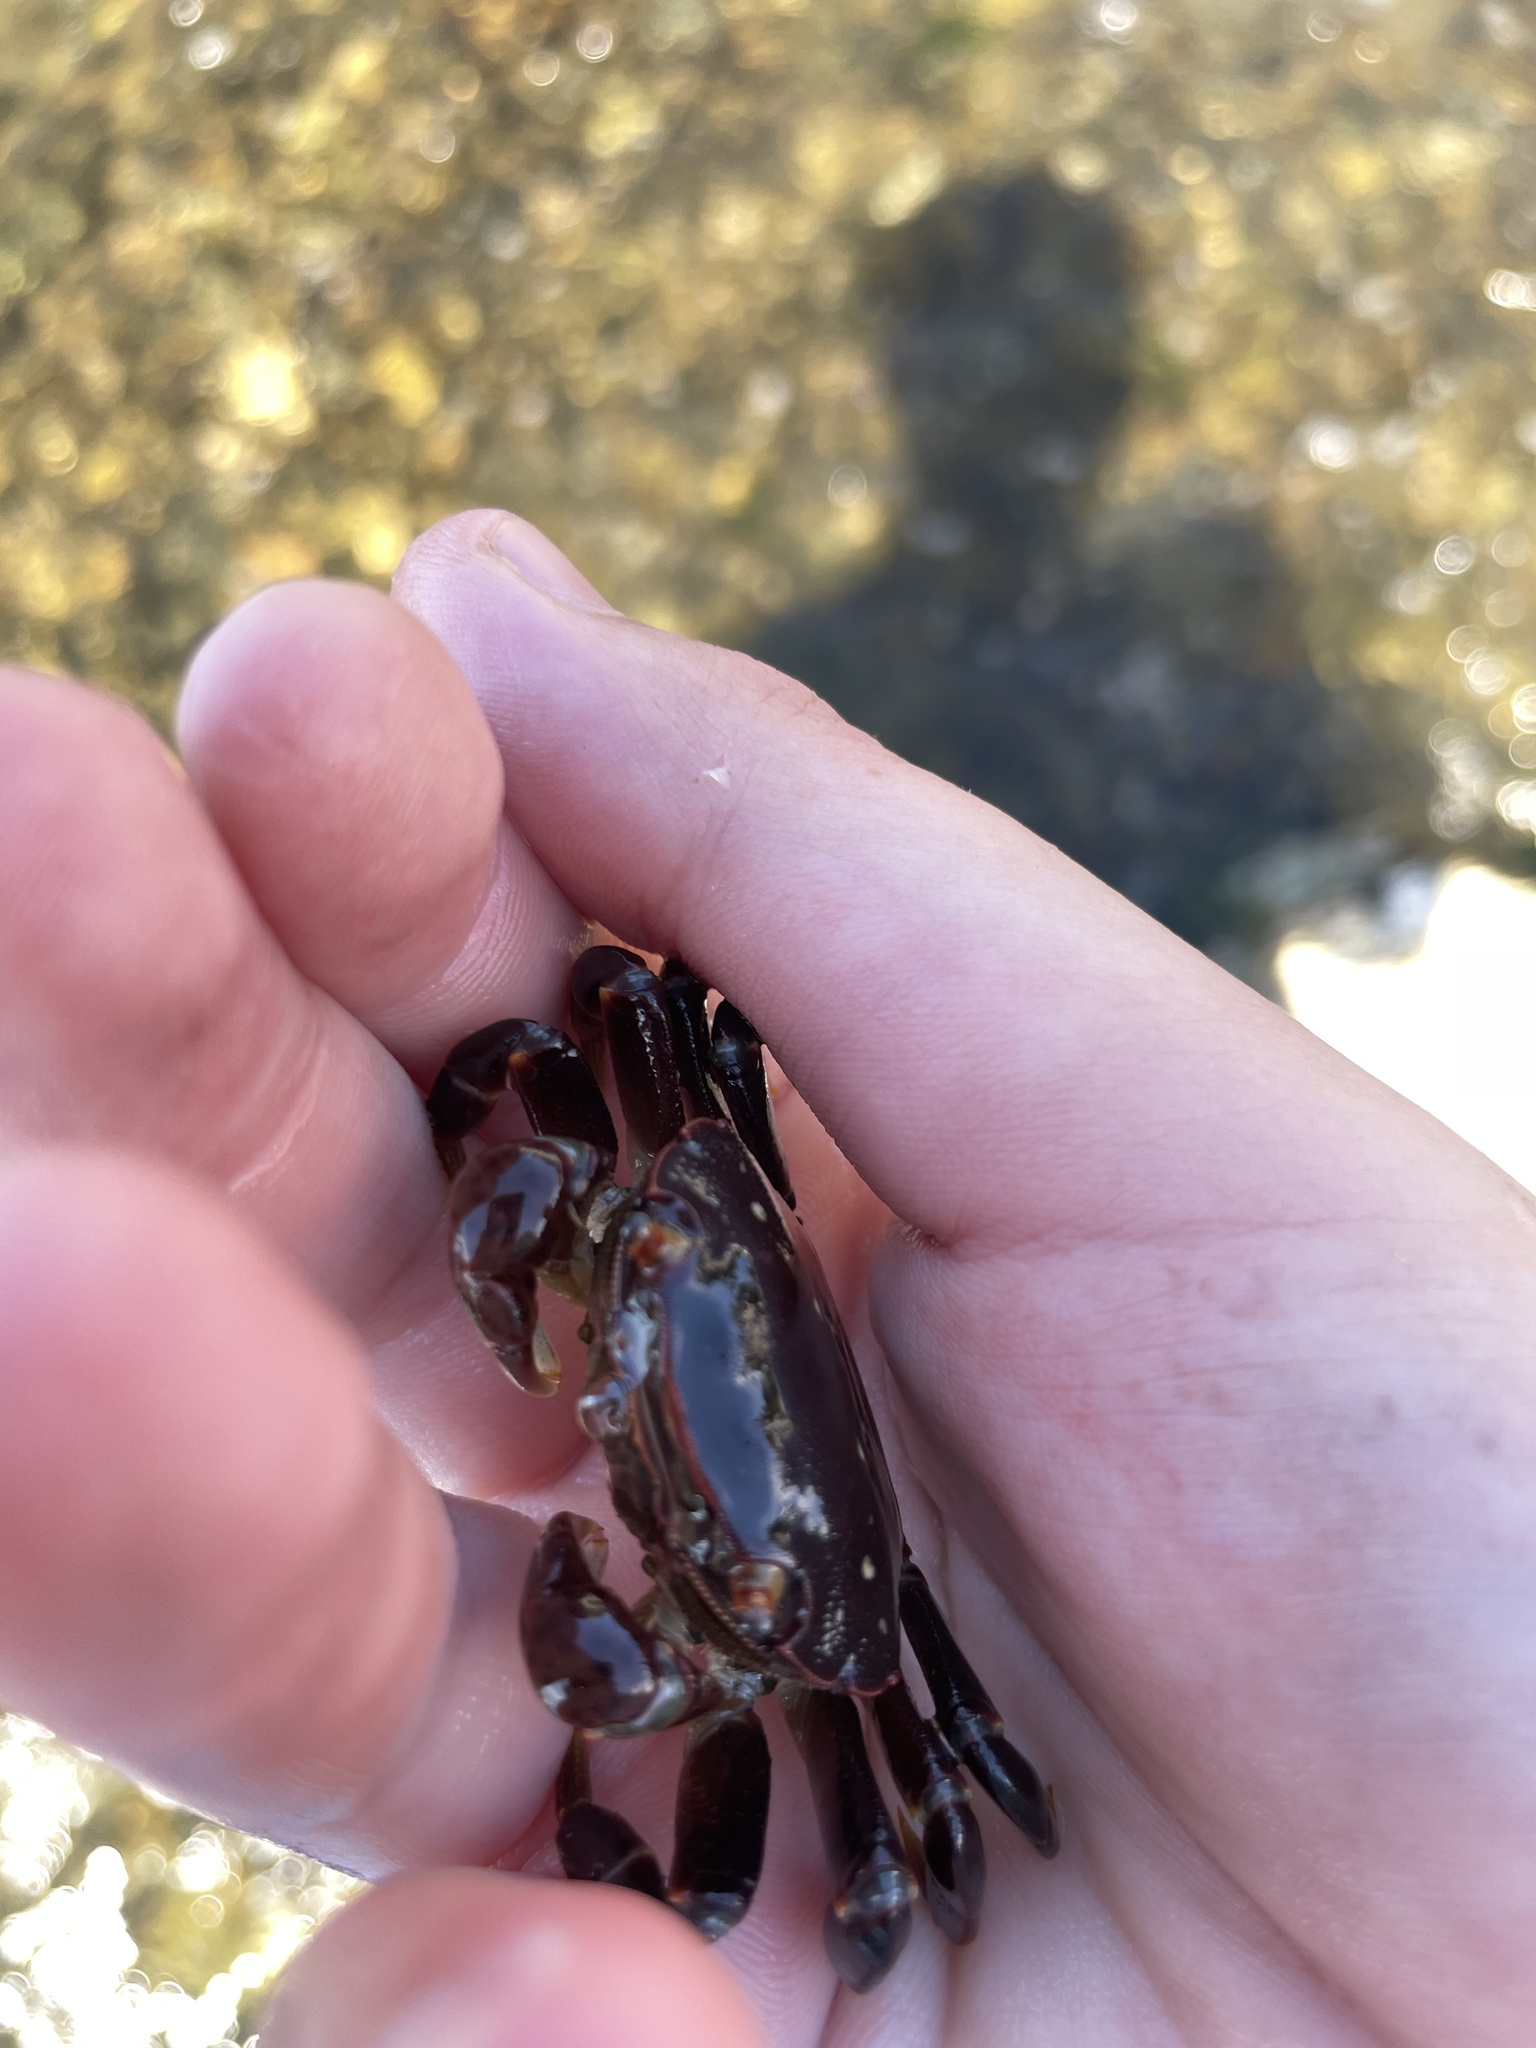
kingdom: Animalia
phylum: Arthropoda
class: Malacostraca
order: Decapoda
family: Varunidae
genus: Hemigrapsus
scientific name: Hemigrapsus nudus
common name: Purple shore crab
